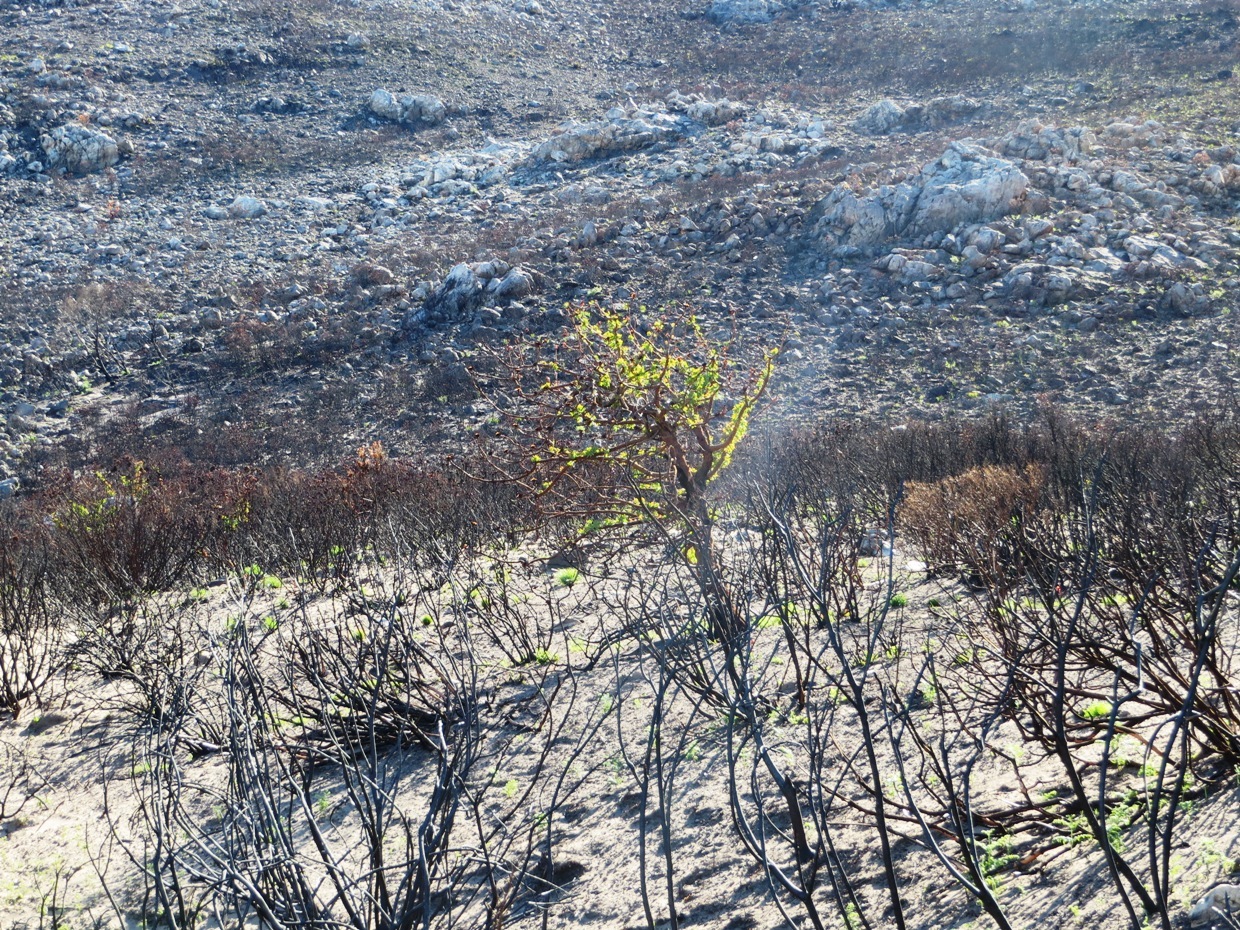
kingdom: Plantae
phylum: Tracheophyta
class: Magnoliopsida
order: Proteales
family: Proteaceae
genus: Protea
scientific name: Protea nitida
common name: Tree protea
